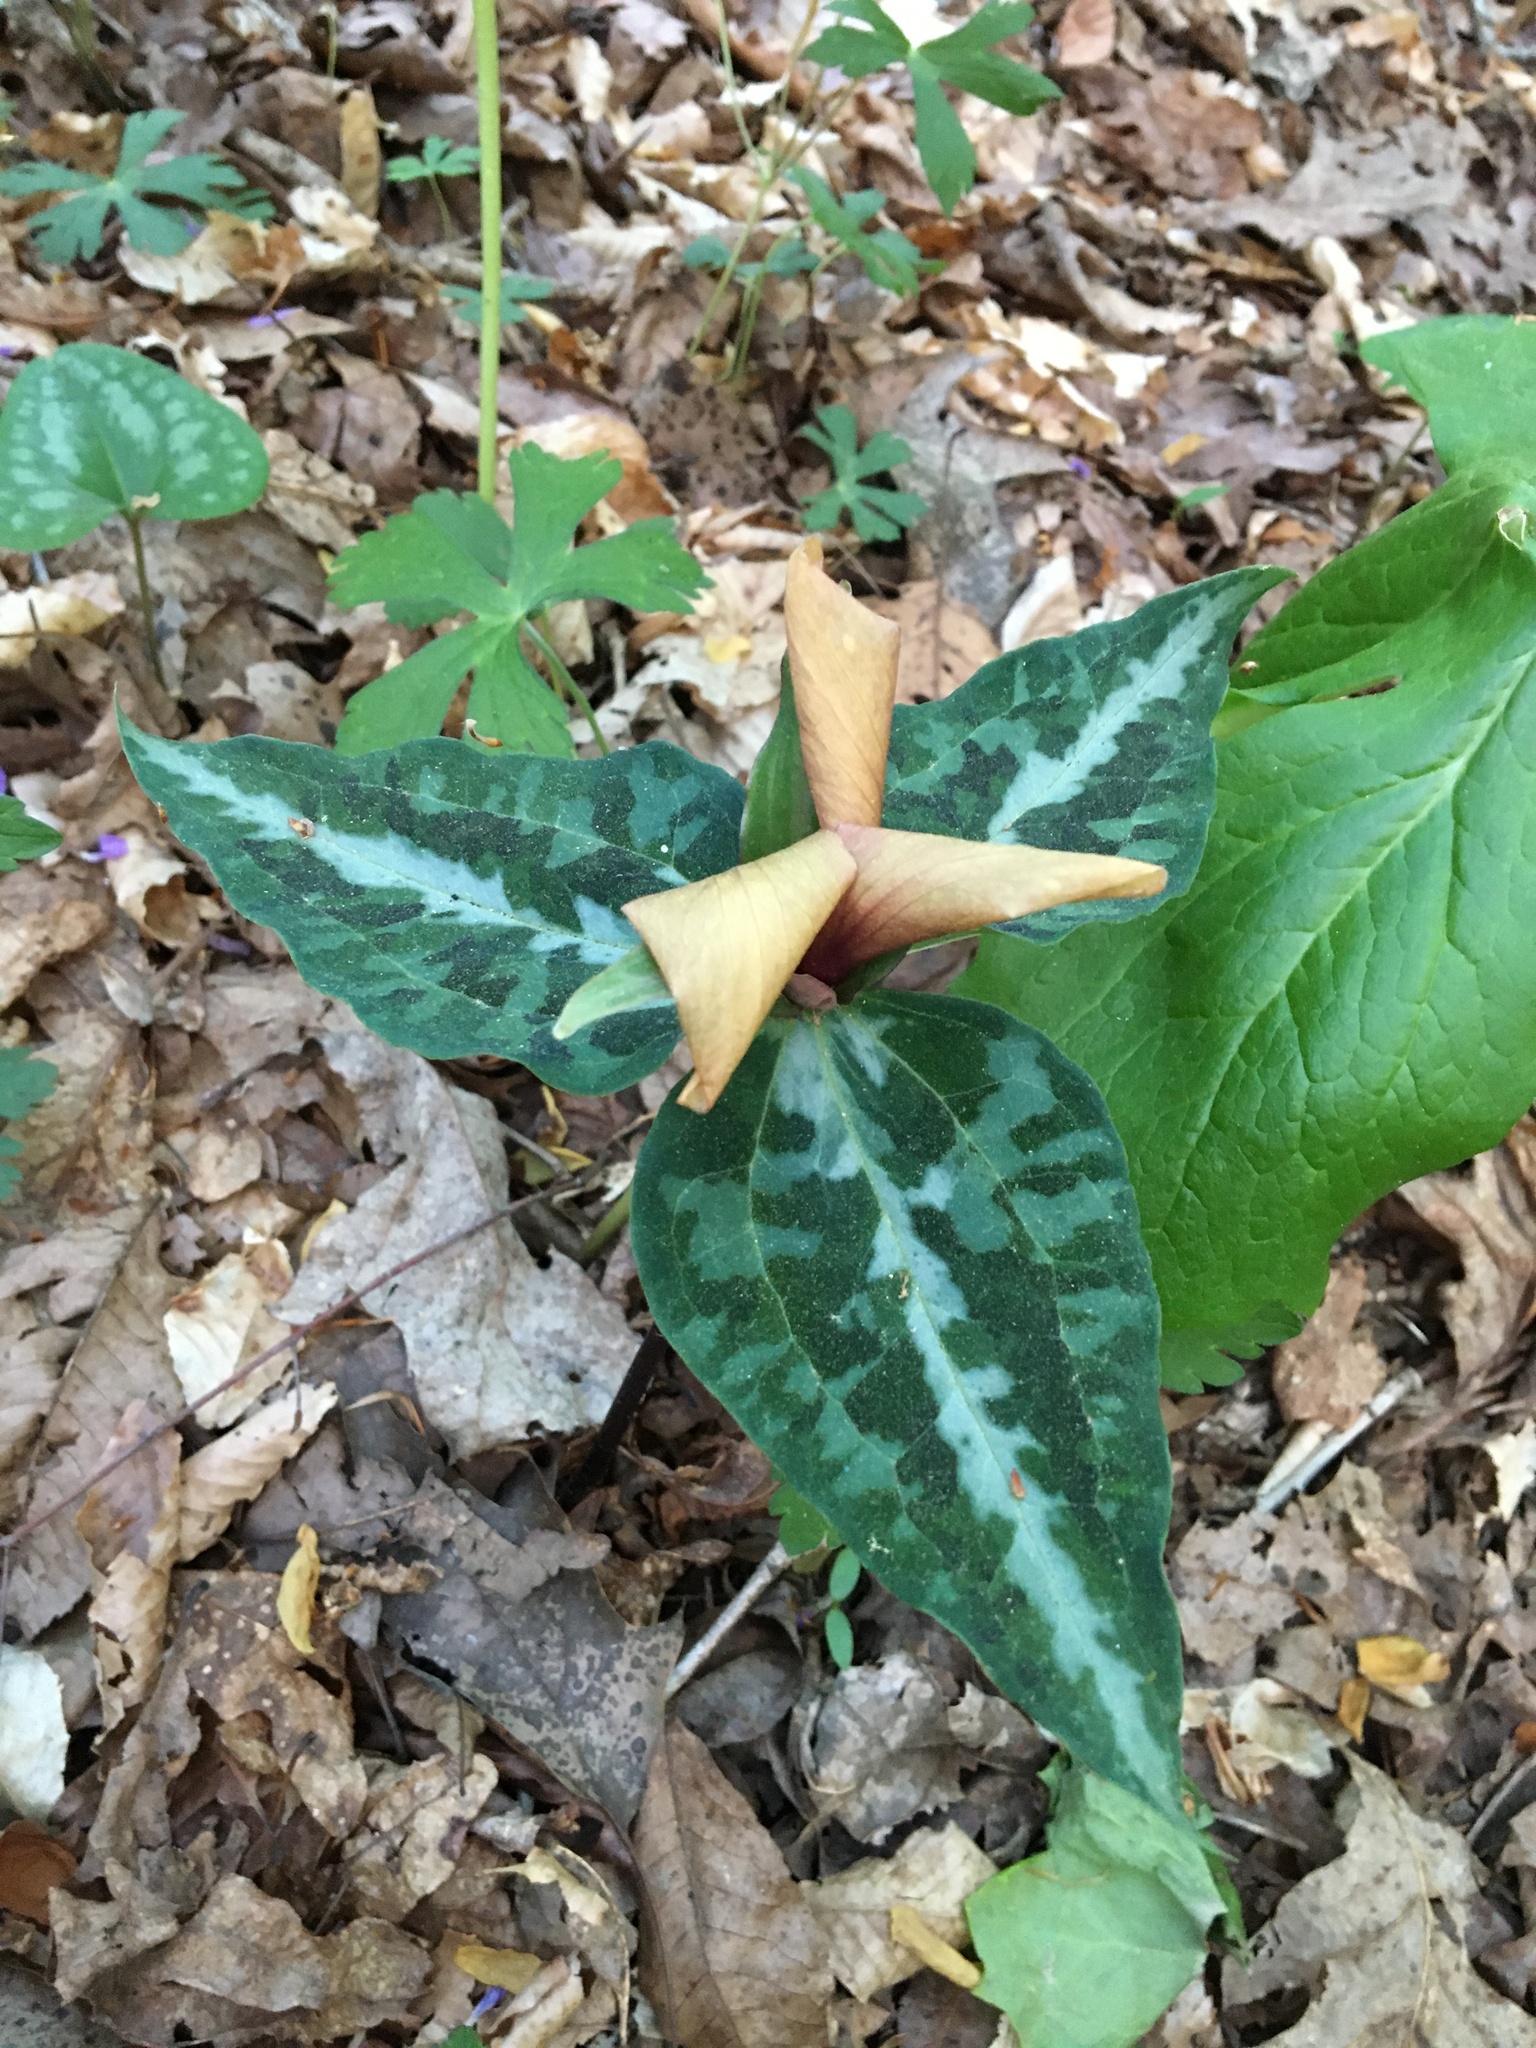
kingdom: Plantae
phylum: Tracheophyta
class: Liliopsida
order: Liliales
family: Melanthiaceae
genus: Trillium
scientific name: Trillium underwoodii
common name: Longbract wakerobin
